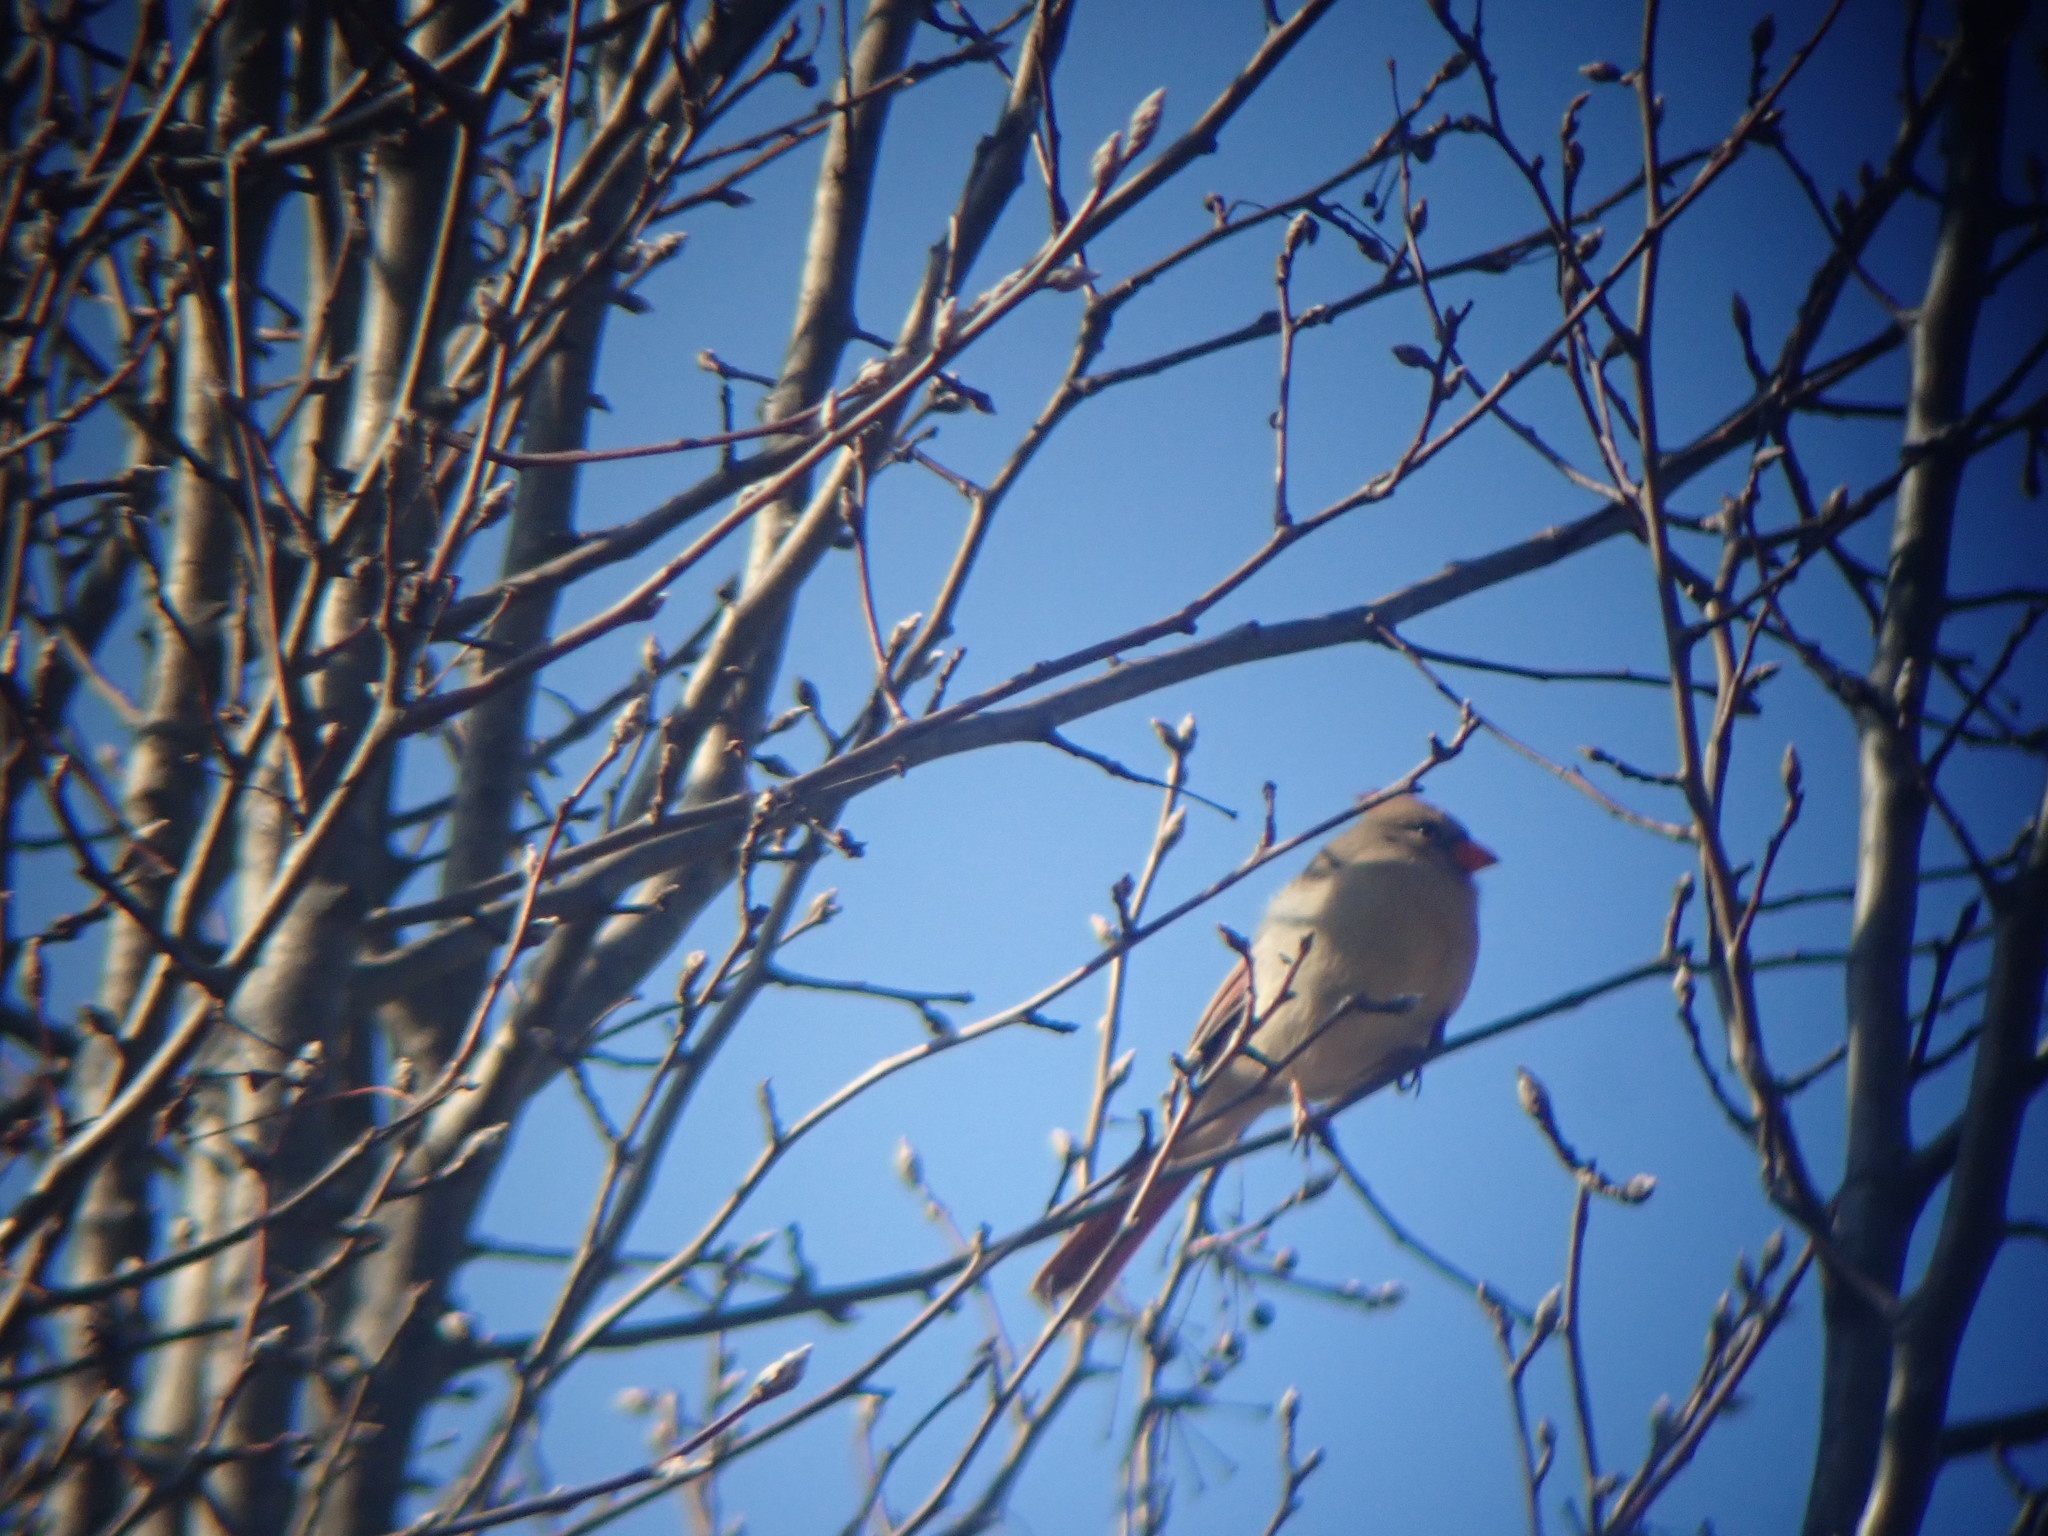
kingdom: Animalia
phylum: Chordata
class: Aves
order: Passeriformes
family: Cardinalidae
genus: Cardinalis
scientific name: Cardinalis cardinalis
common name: Northern cardinal
